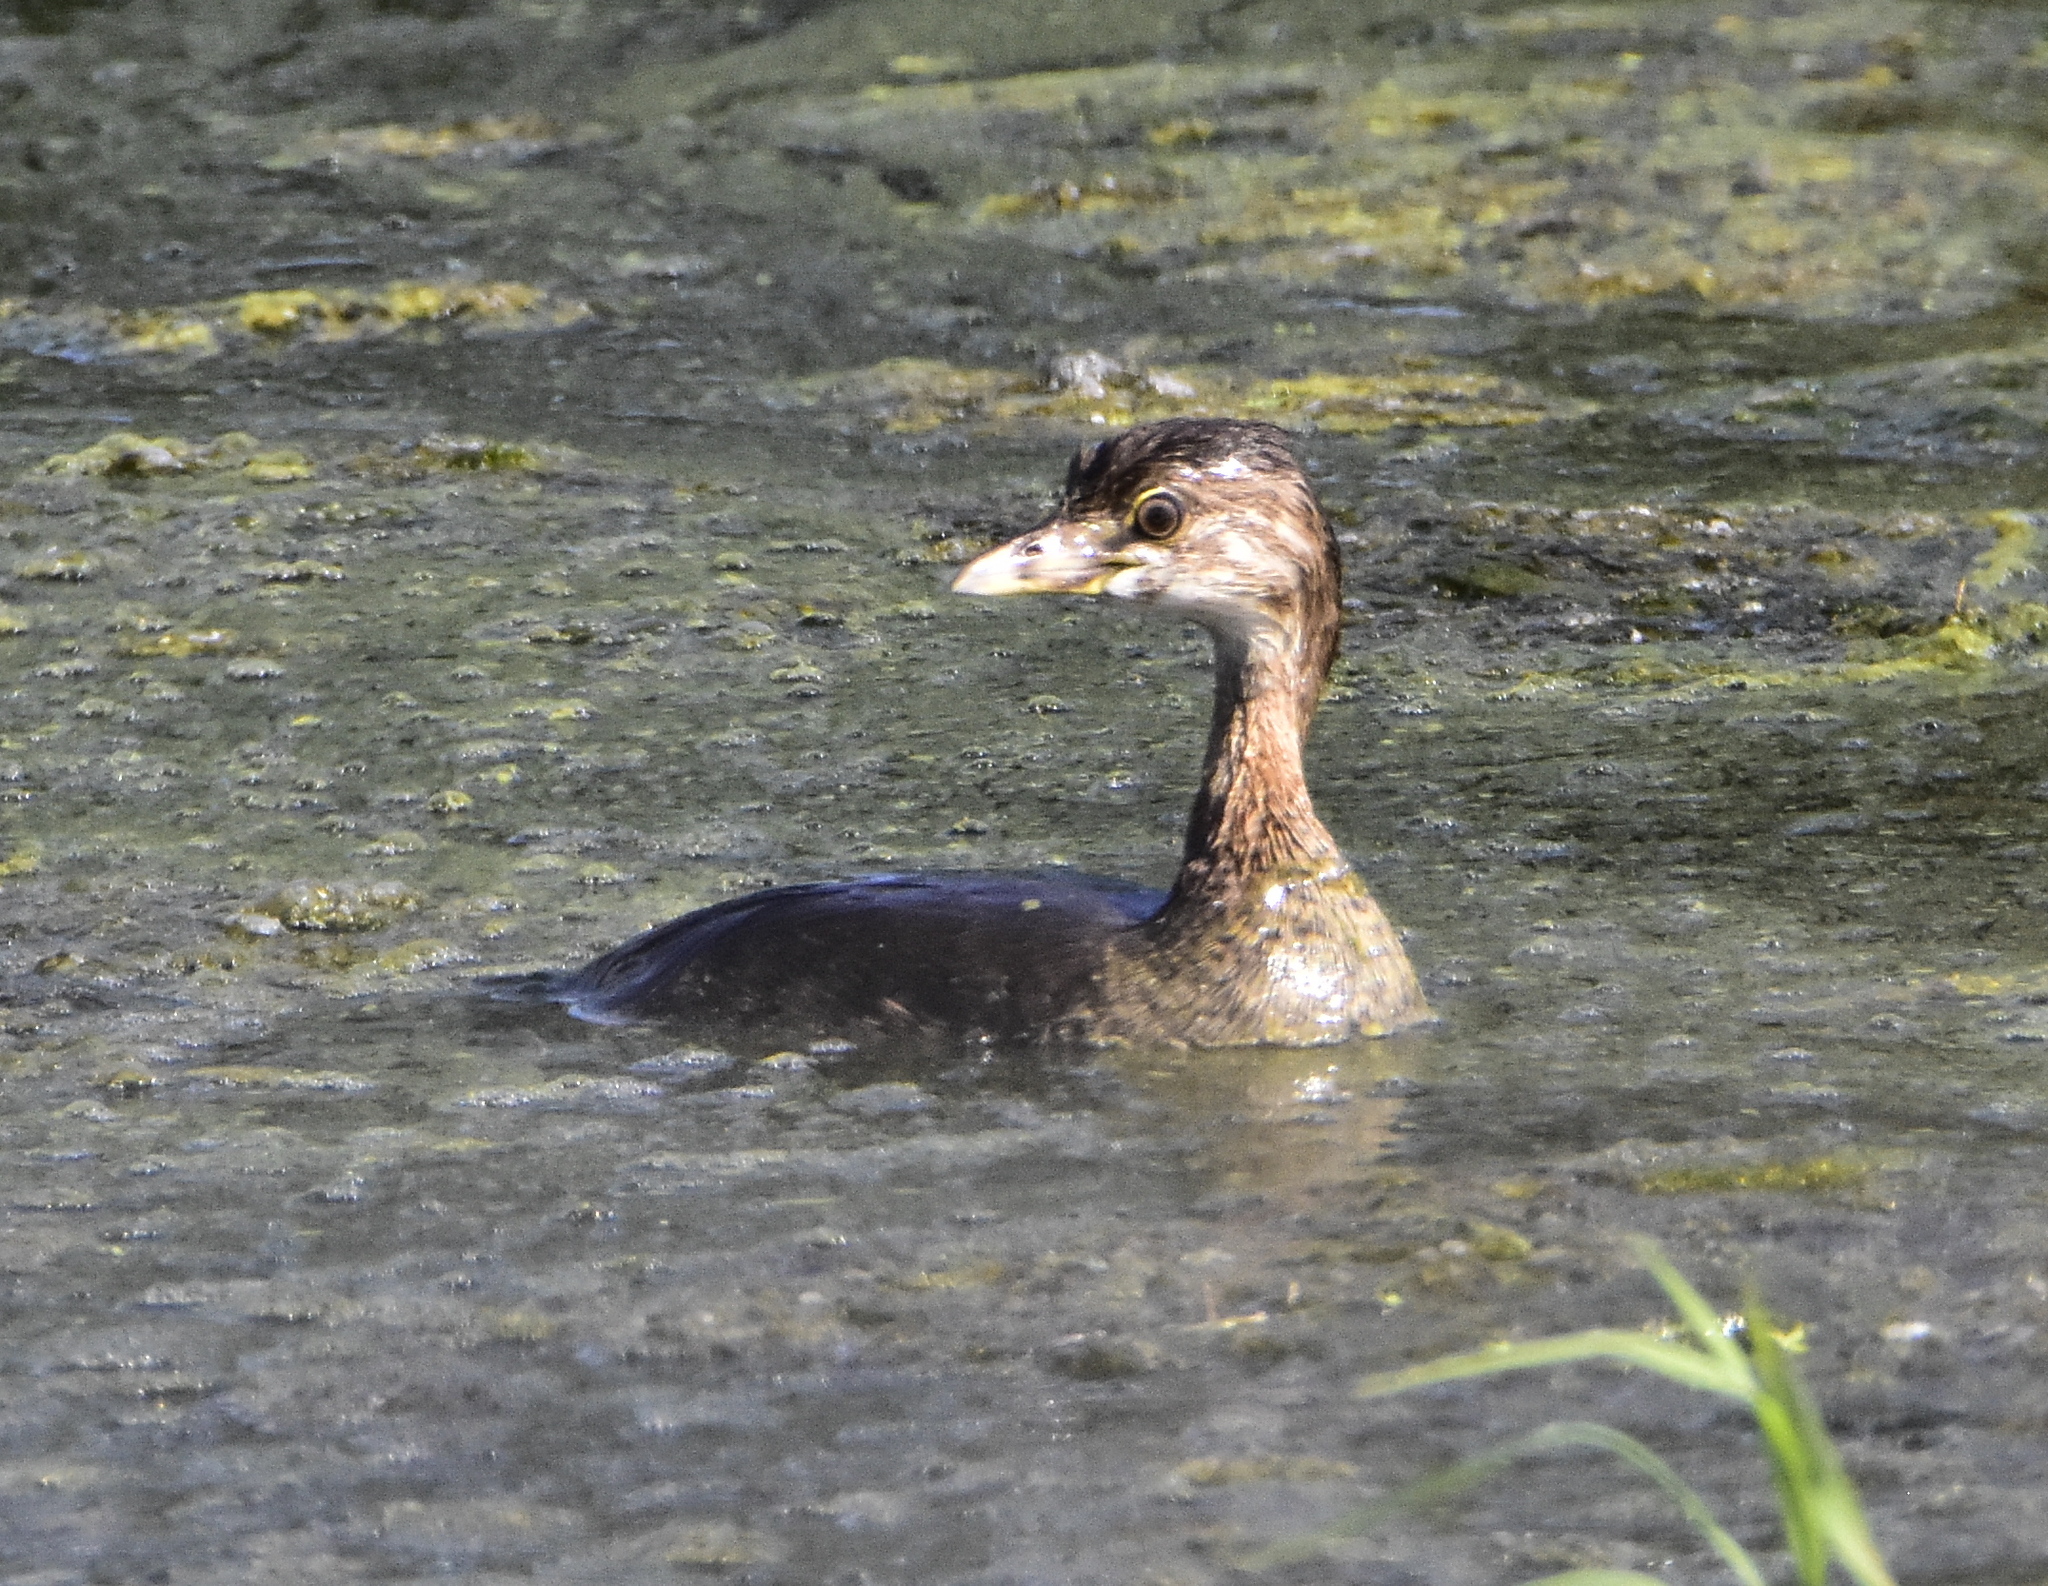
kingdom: Animalia
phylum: Chordata
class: Aves
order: Podicipediformes
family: Podicipedidae
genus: Podilymbus
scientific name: Podilymbus podiceps
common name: Pied-billed grebe
